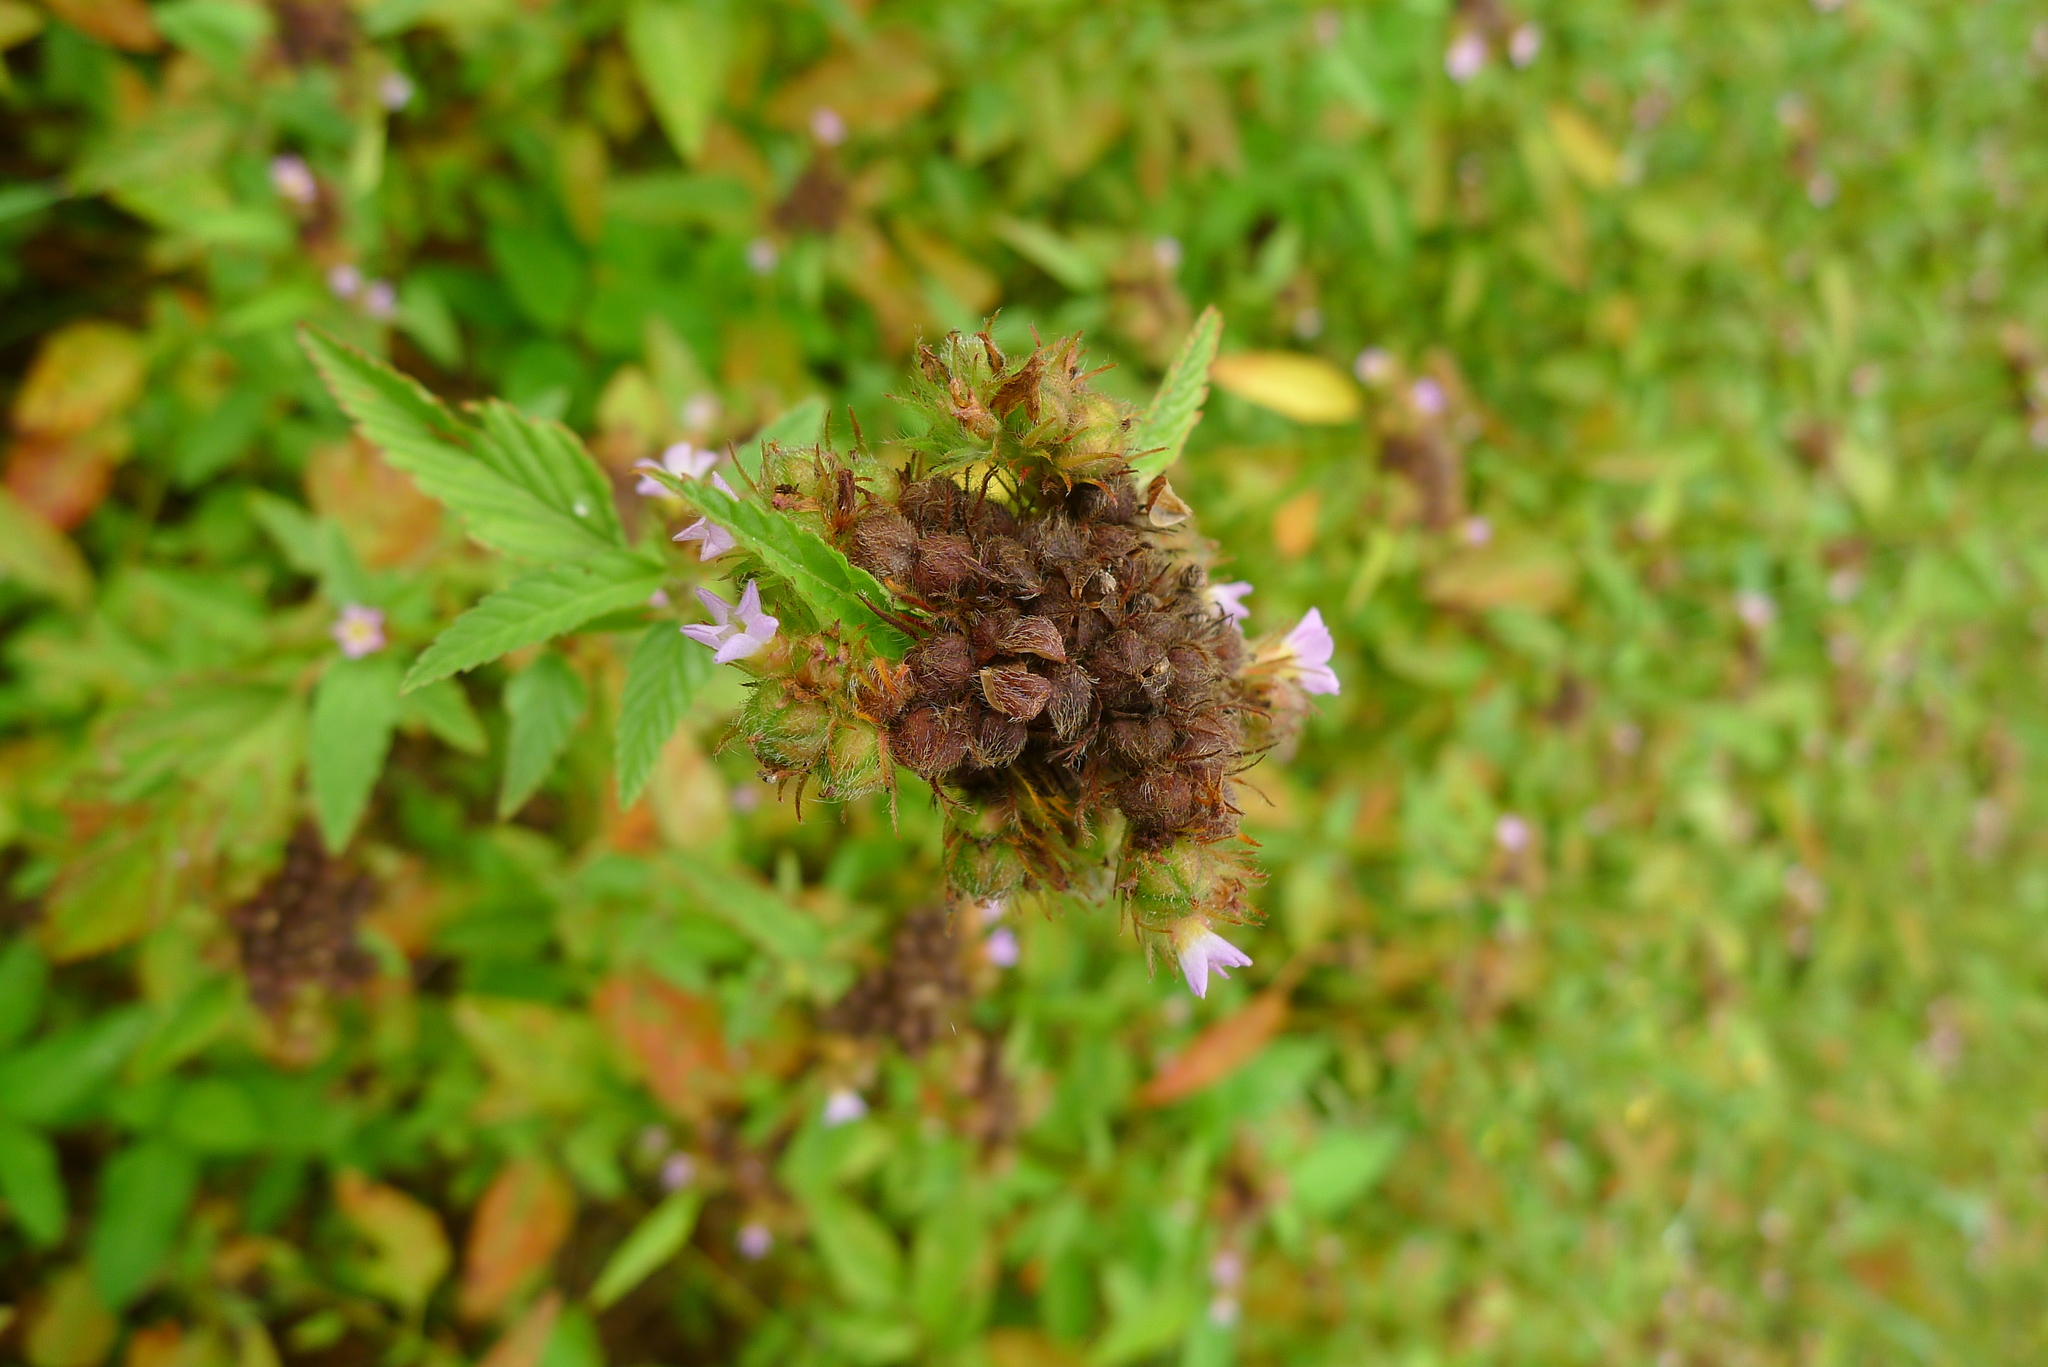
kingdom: Plantae
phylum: Tracheophyta
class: Magnoliopsida
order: Malvales
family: Malvaceae
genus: Melochia
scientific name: Melochia corchorifolia
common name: Chocolateweed
